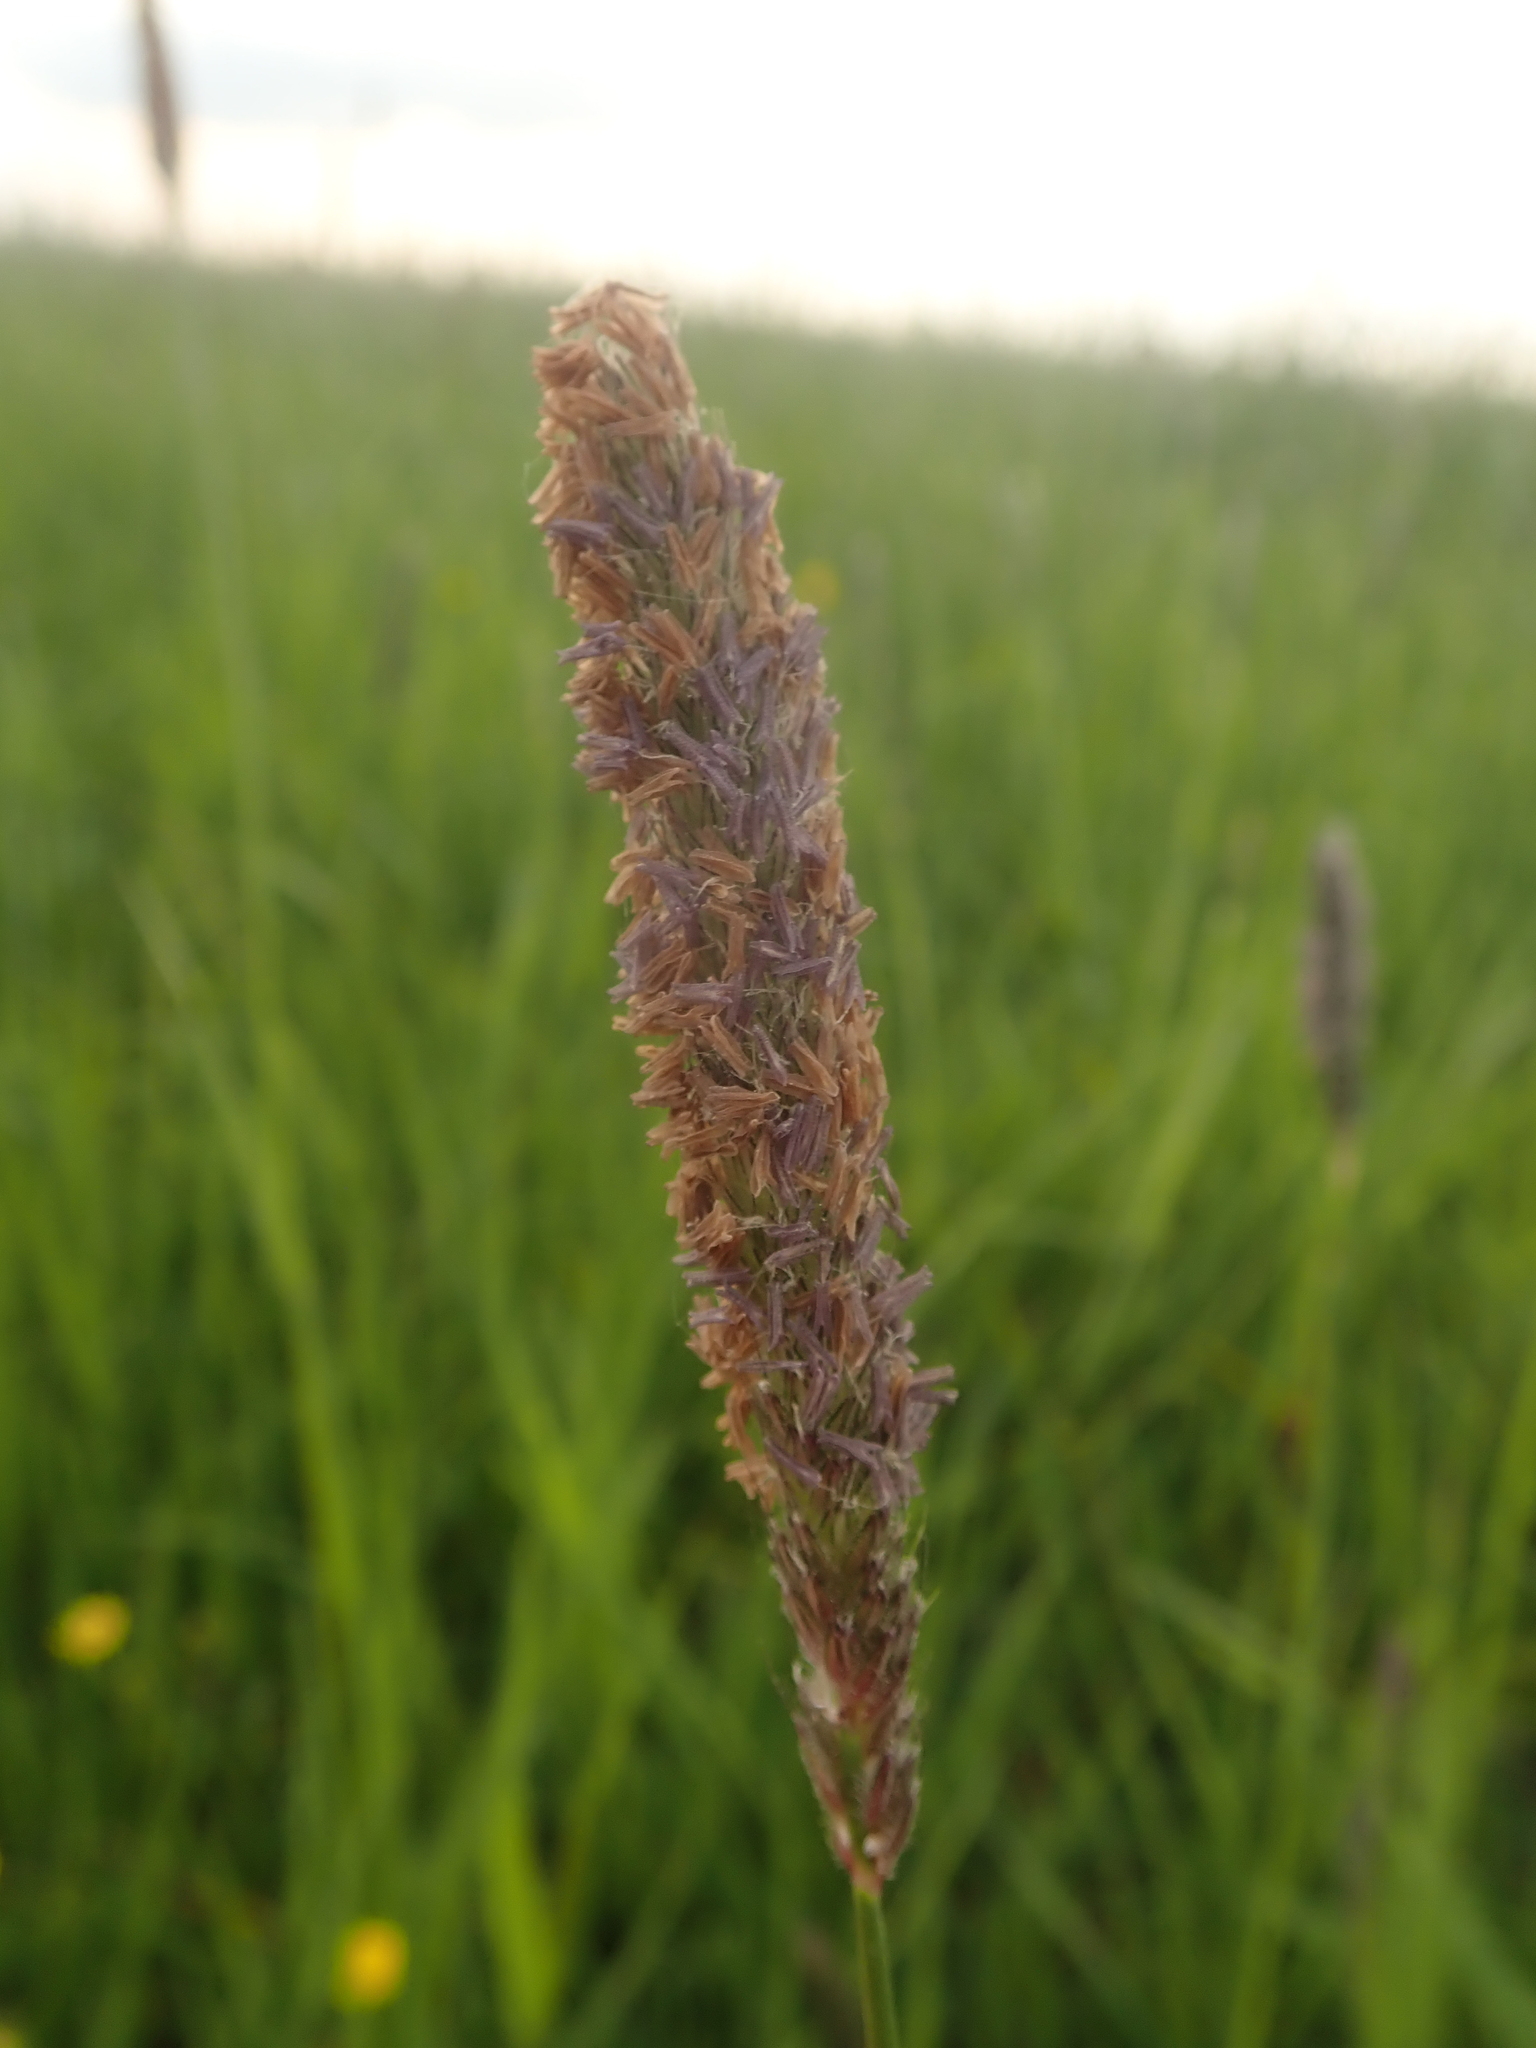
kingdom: Plantae
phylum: Tracheophyta
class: Liliopsida
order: Poales
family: Poaceae
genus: Alopecurus
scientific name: Alopecurus pratensis
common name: Meadow foxtail
